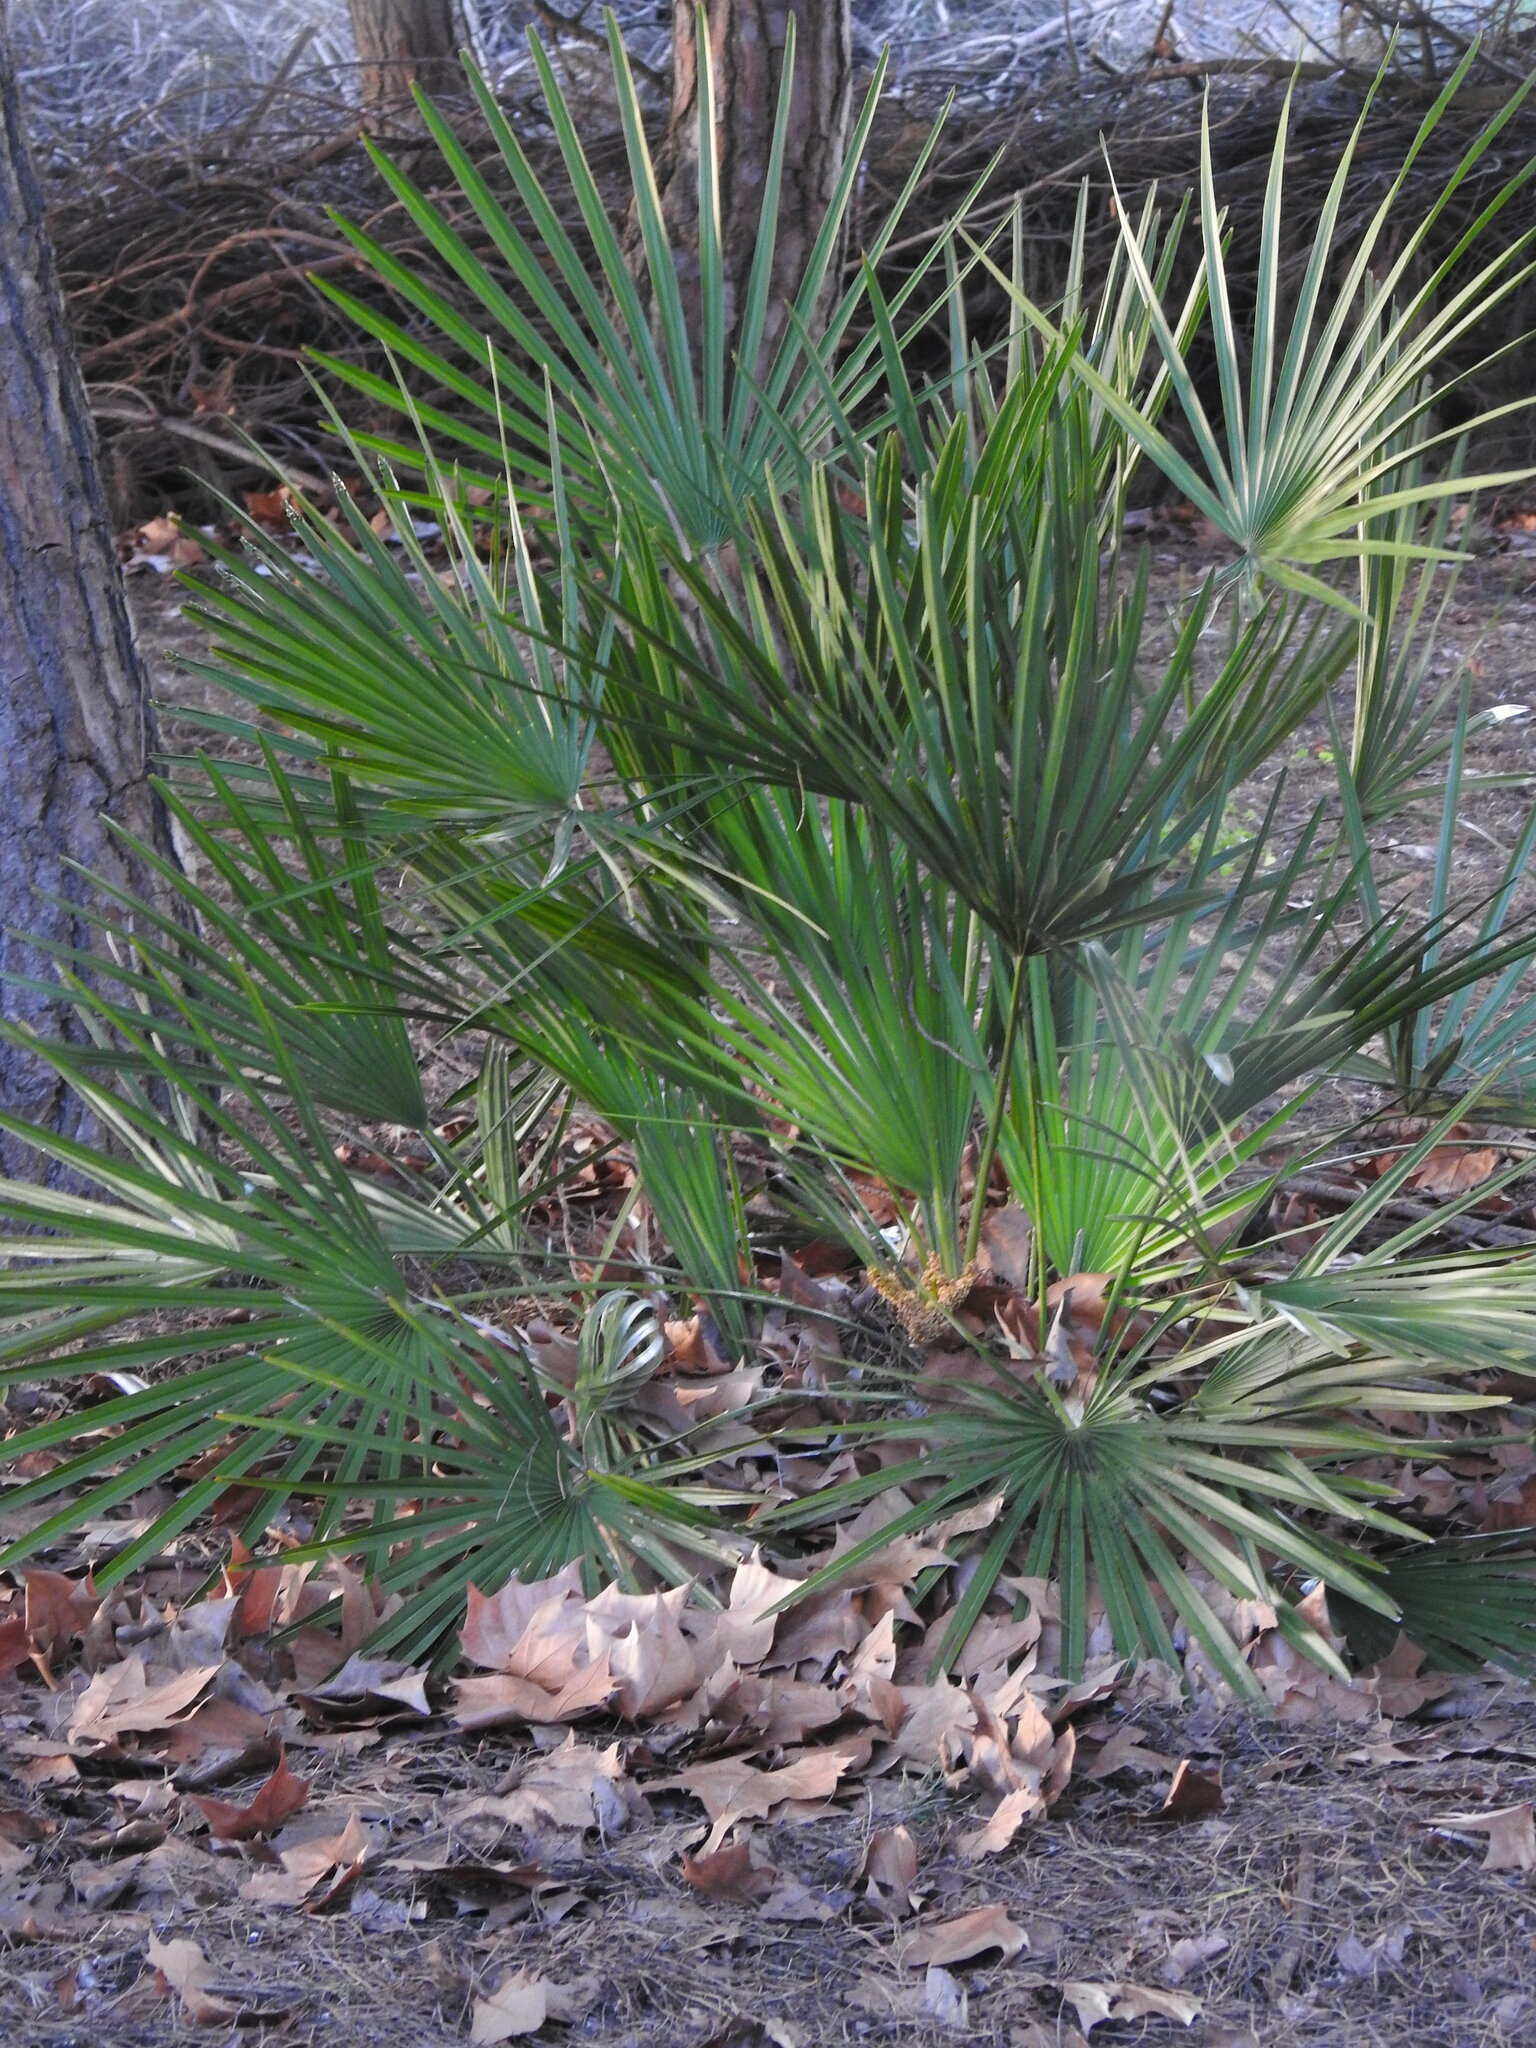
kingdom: Plantae
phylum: Tracheophyta
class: Liliopsida
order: Arecales
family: Arecaceae
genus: Chamaerops
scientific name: Chamaerops humilis
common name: Dwarf fan palm
